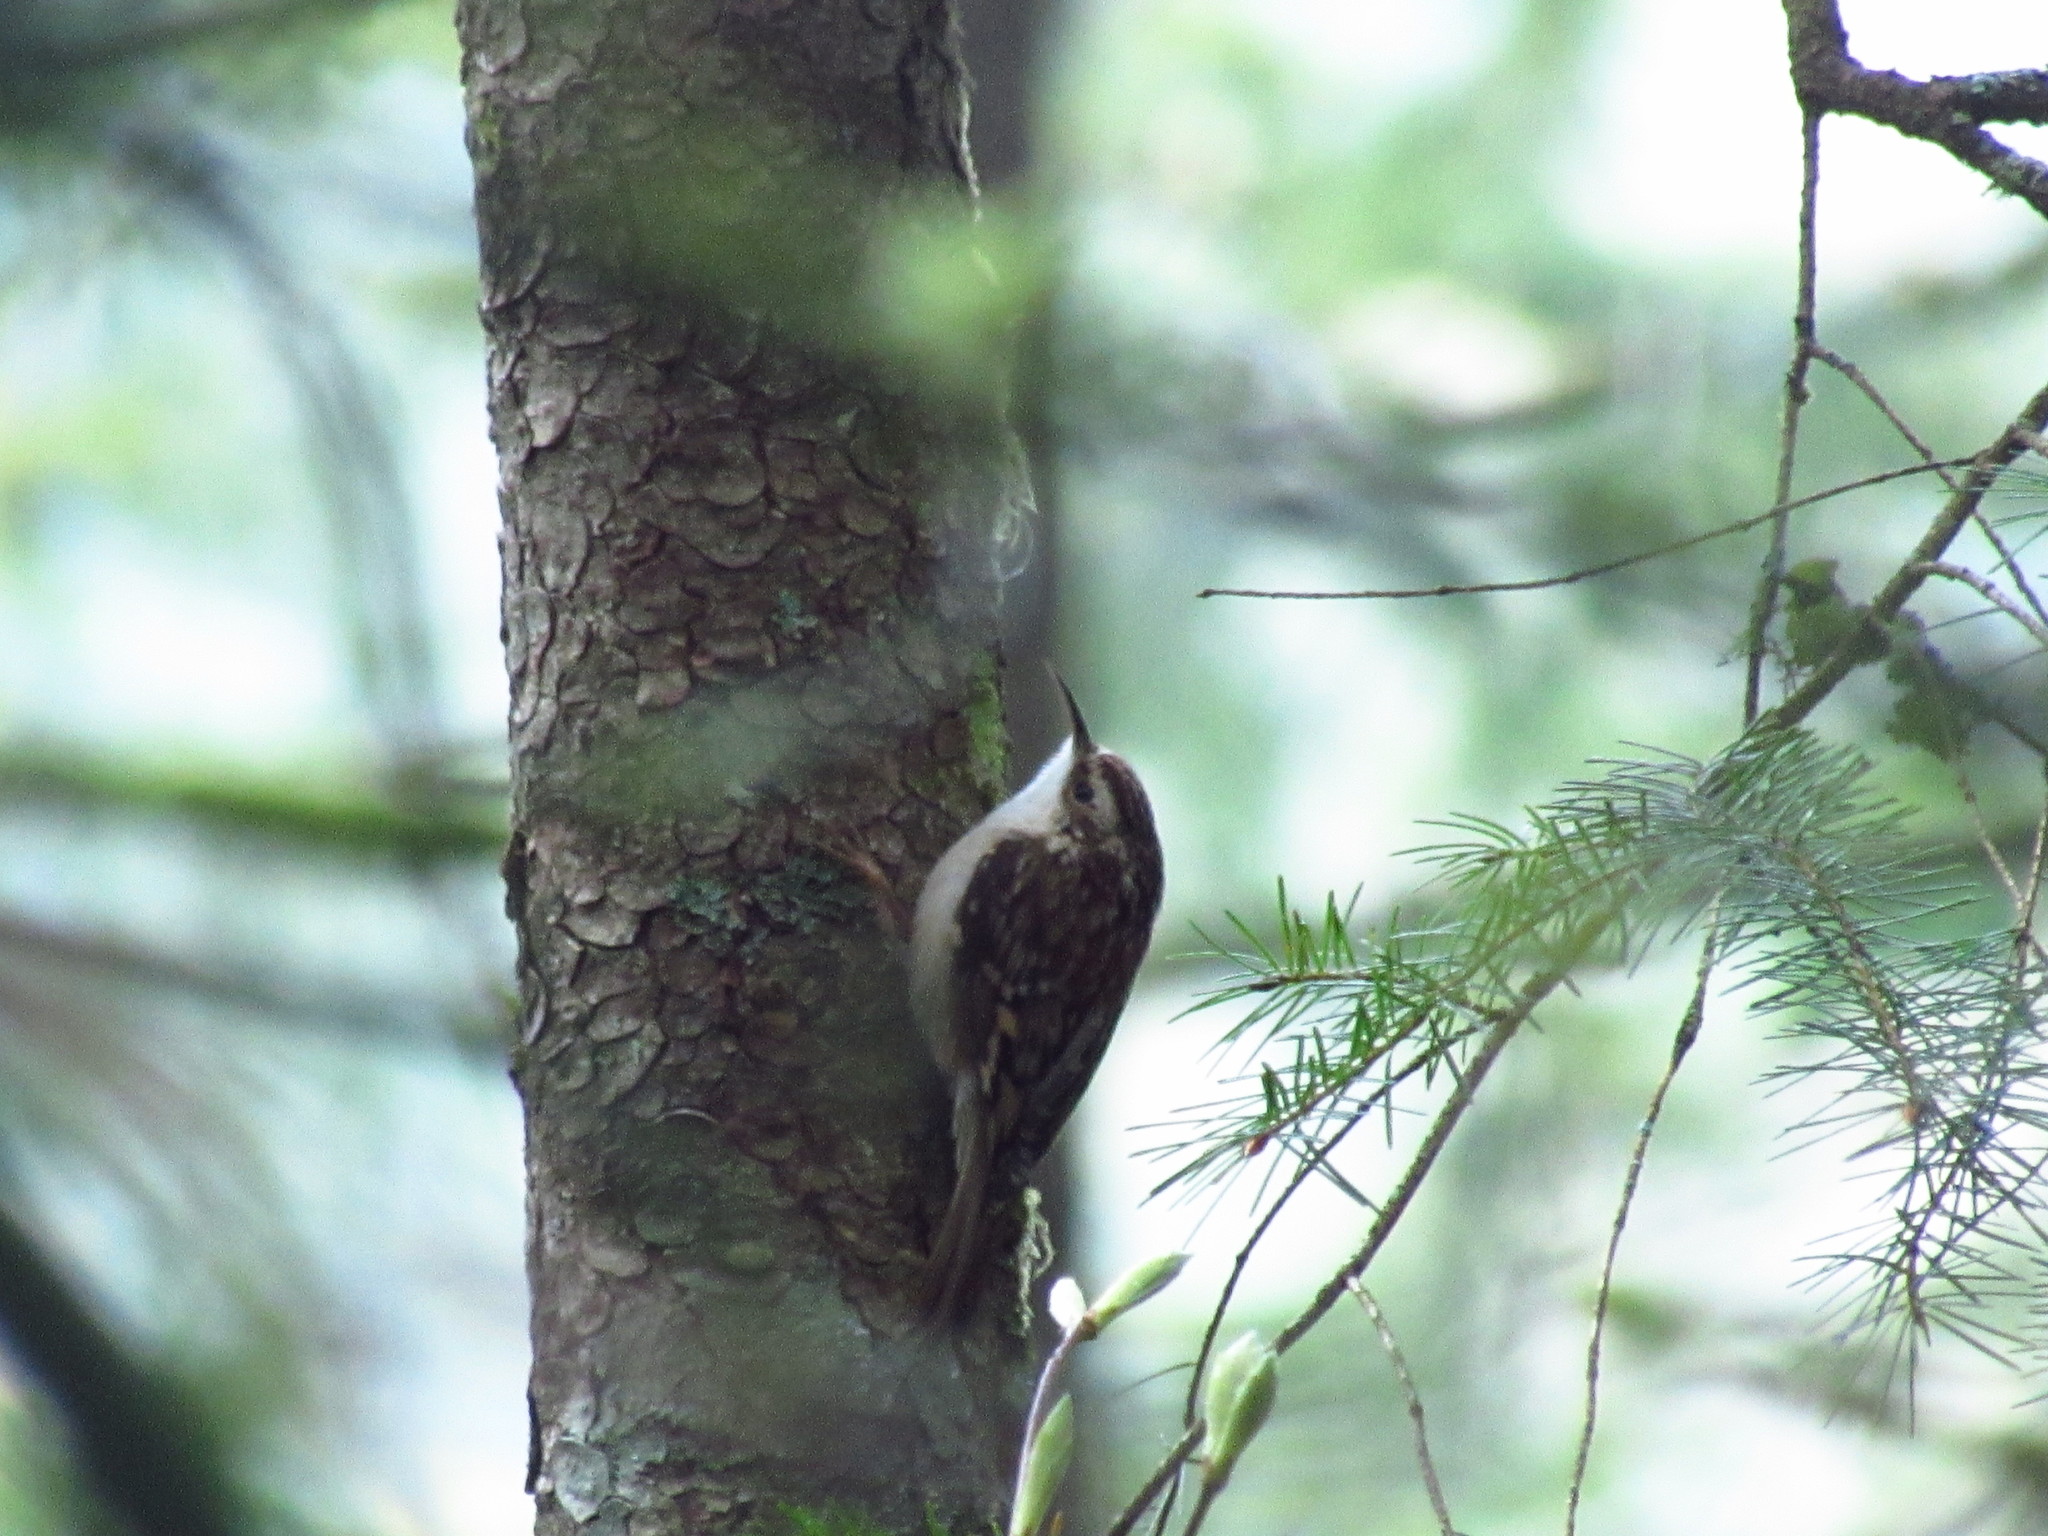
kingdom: Animalia
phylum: Chordata
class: Aves
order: Passeriformes
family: Certhiidae
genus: Certhia
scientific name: Certhia americana
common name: Brown creeper
